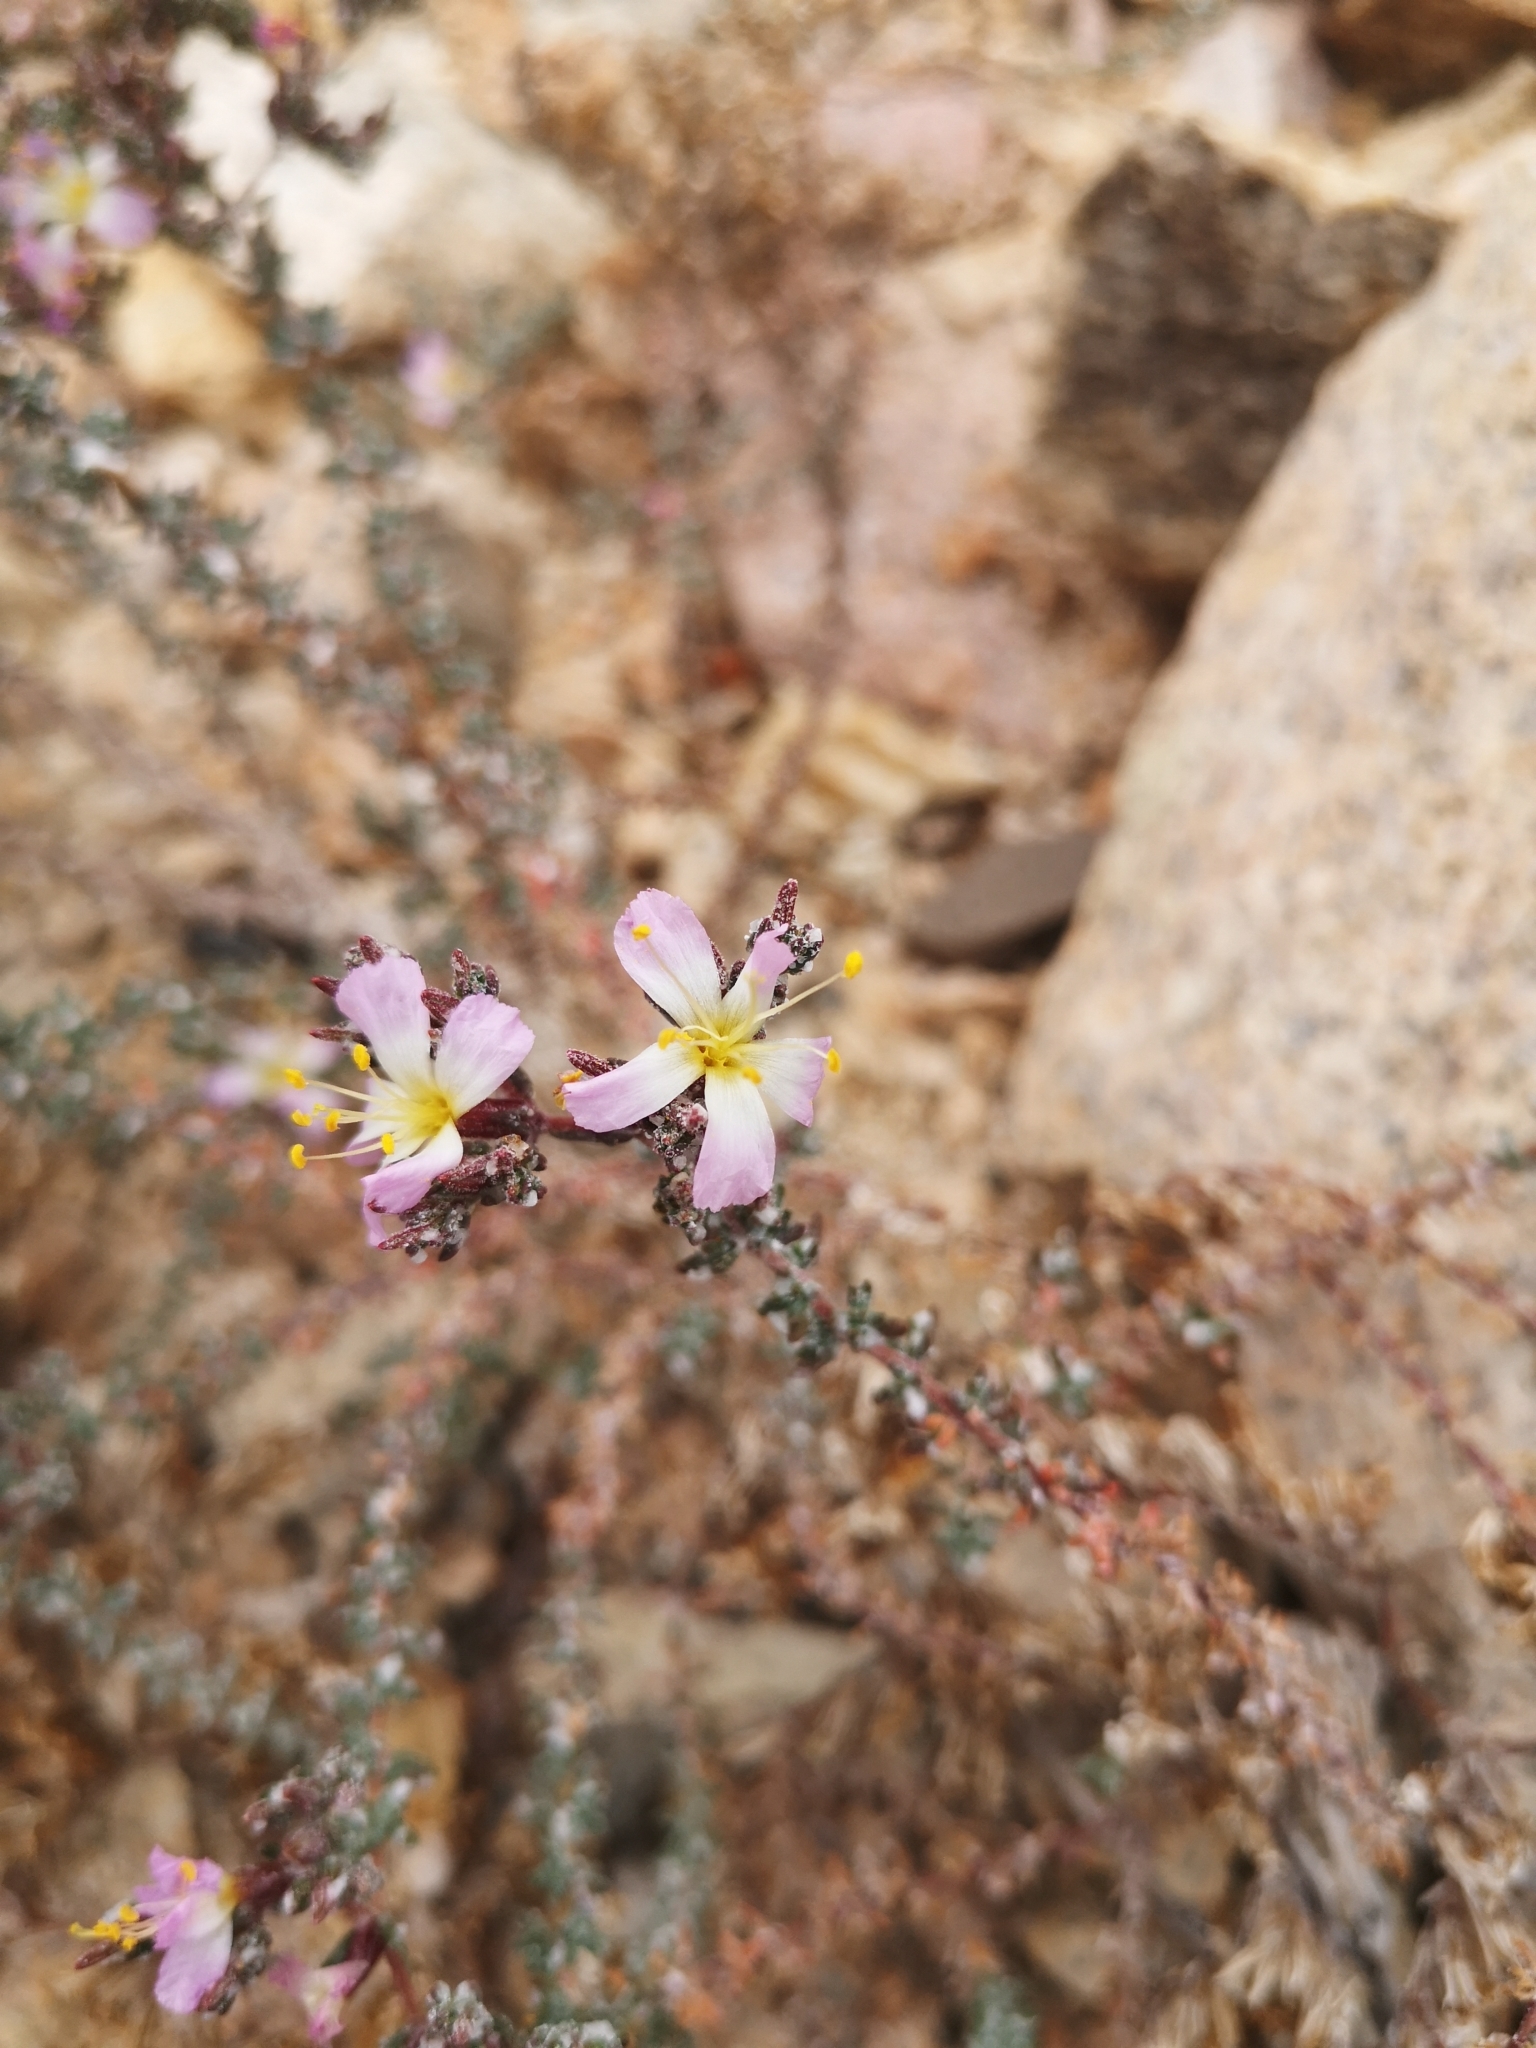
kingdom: Plantae
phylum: Tracheophyta
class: Magnoliopsida
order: Caryophyllales
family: Frankeniaceae
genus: Frankenia
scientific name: Frankenia chilensis
